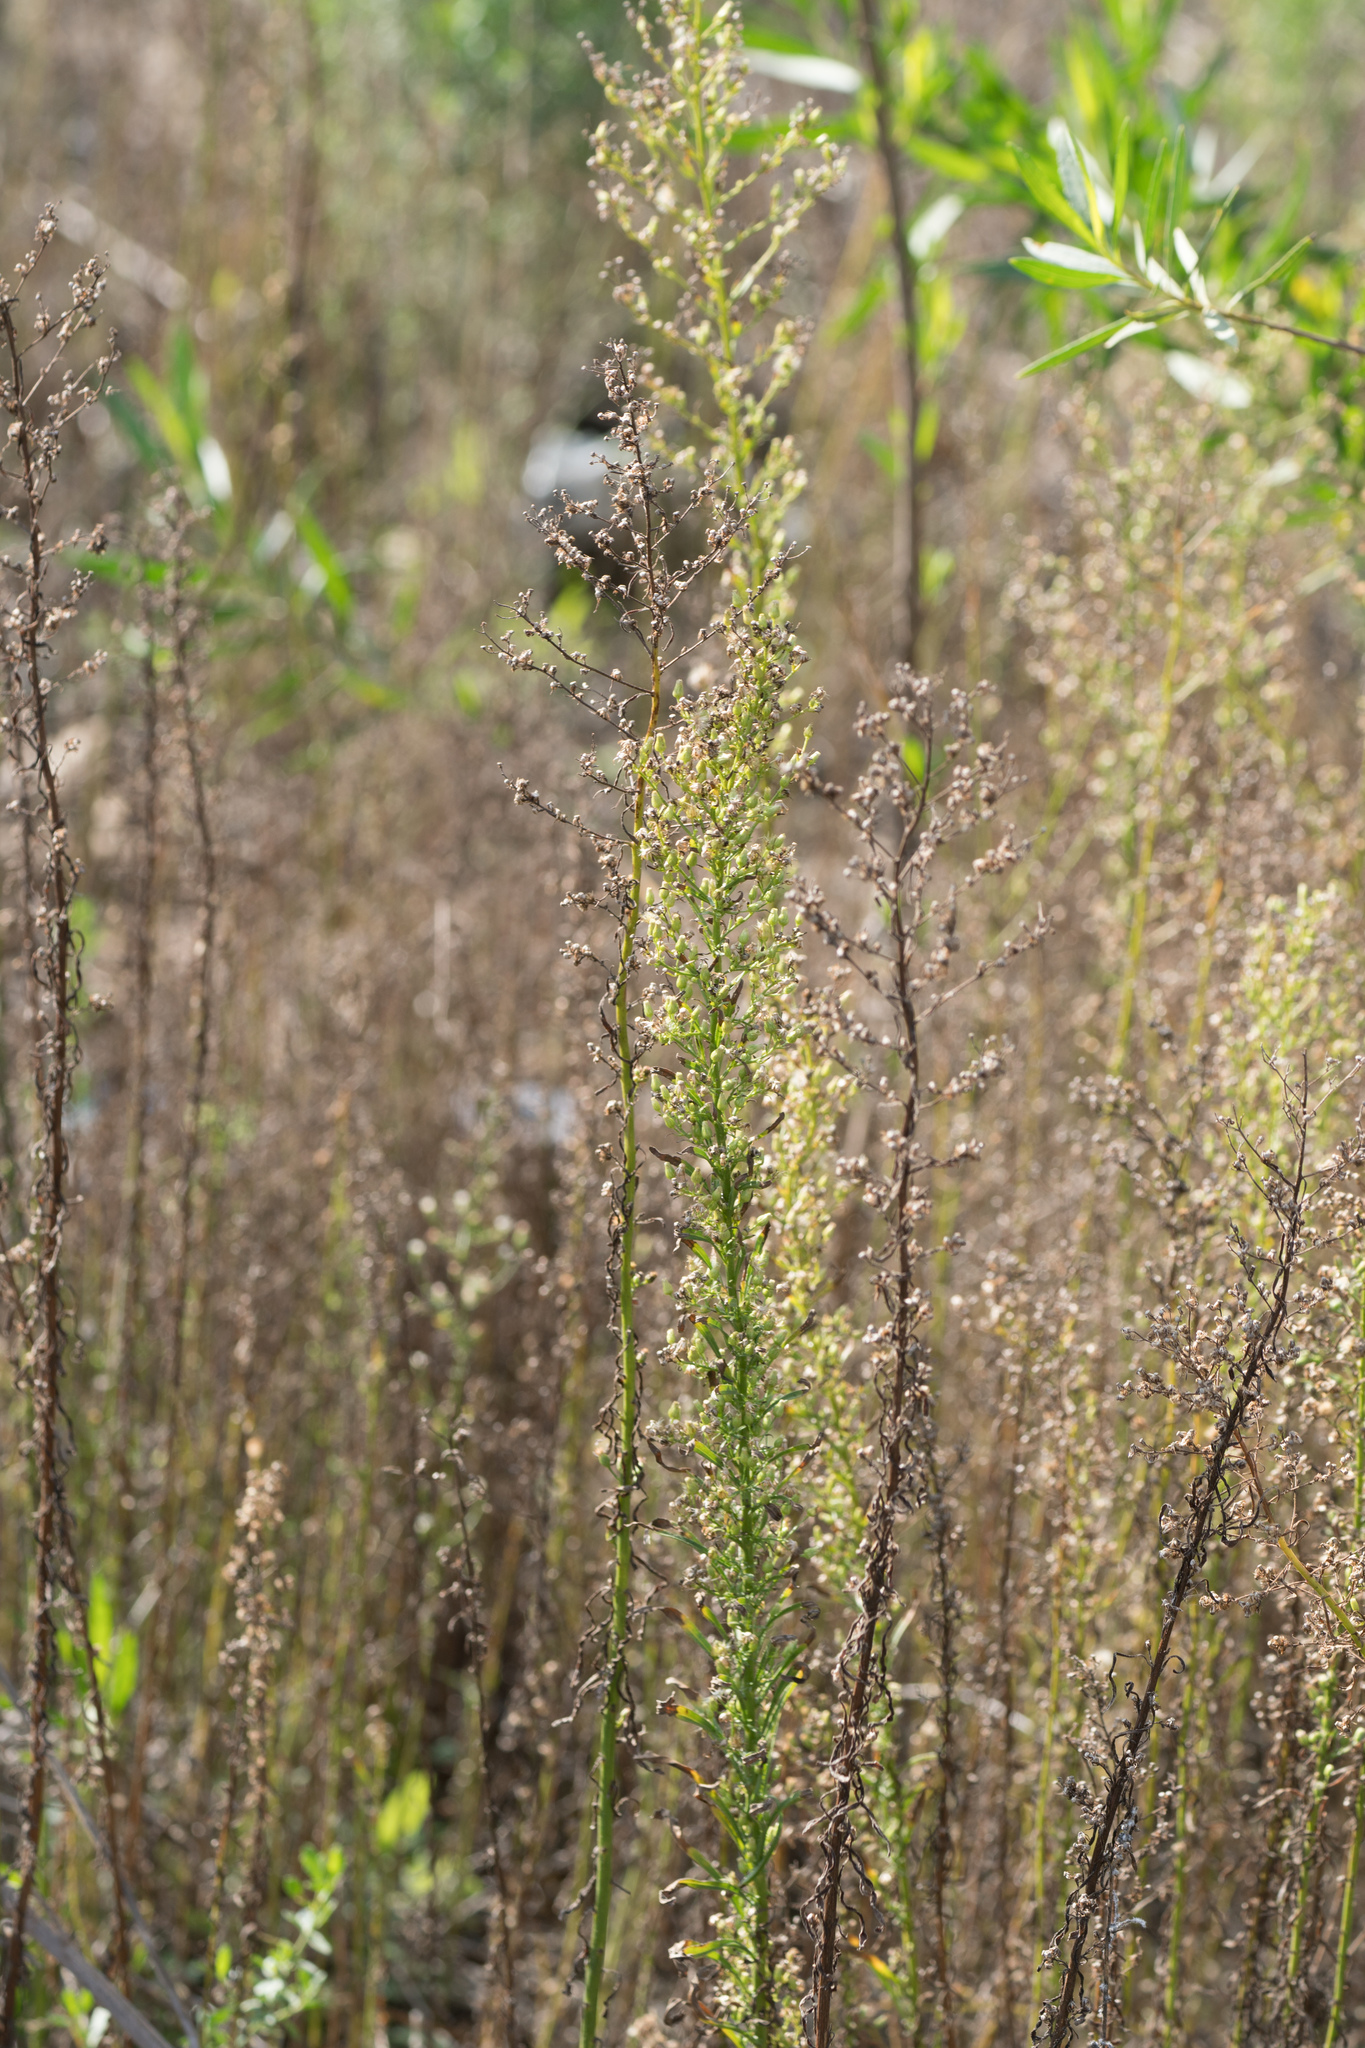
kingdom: Plantae
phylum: Tracheophyta
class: Magnoliopsida
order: Asterales
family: Asteraceae
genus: Erigeron
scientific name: Erigeron canadensis
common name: Canadian fleabane
